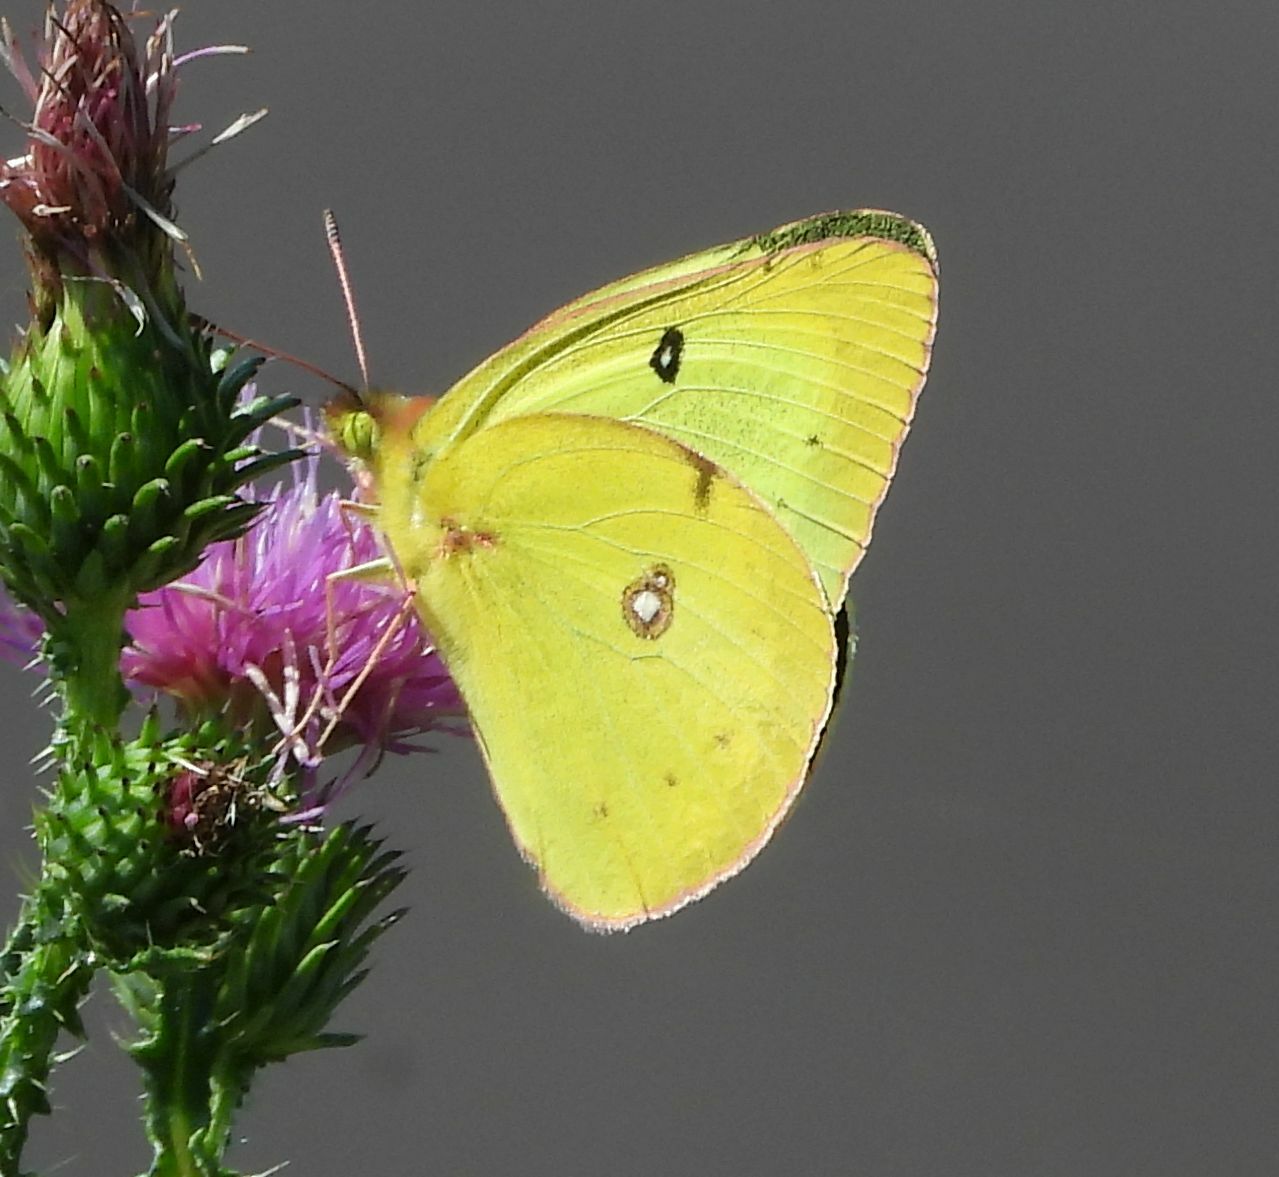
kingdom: Animalia
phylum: Arthropoda
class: Insecta
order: Lepidoptera
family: Pieridae
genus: Colias
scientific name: Colias philodice
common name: Clouded sulphur
